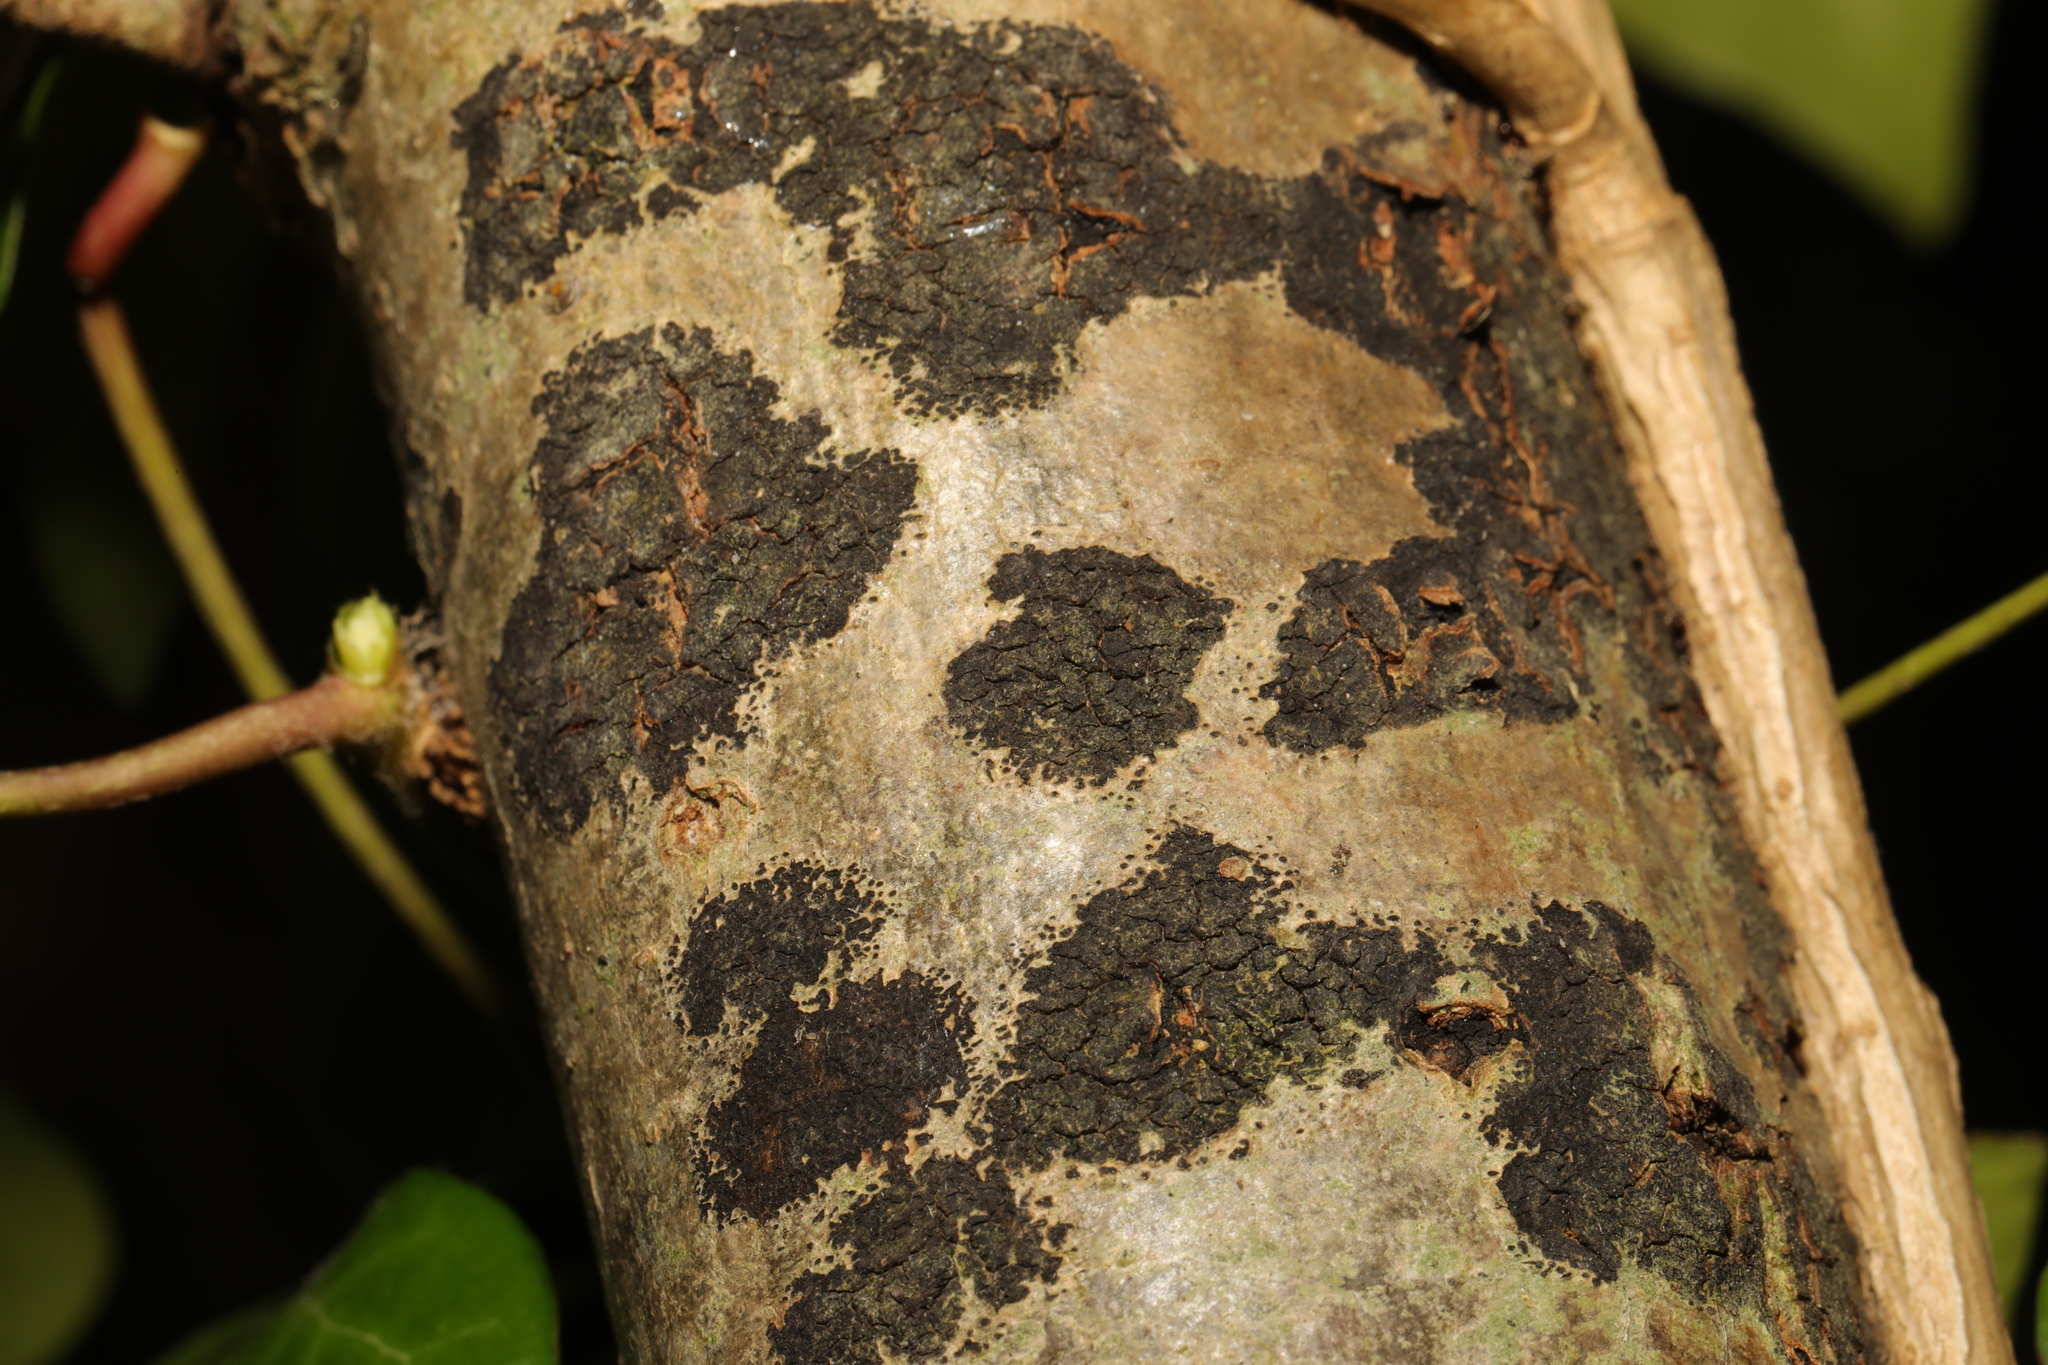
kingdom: Fungi
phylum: Ascomycota
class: Sordariomycetes
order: Xylariales
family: Hypoxylaceae
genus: Jackrogersella
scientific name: Jackrogersella multiformis
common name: Birch woodwart
